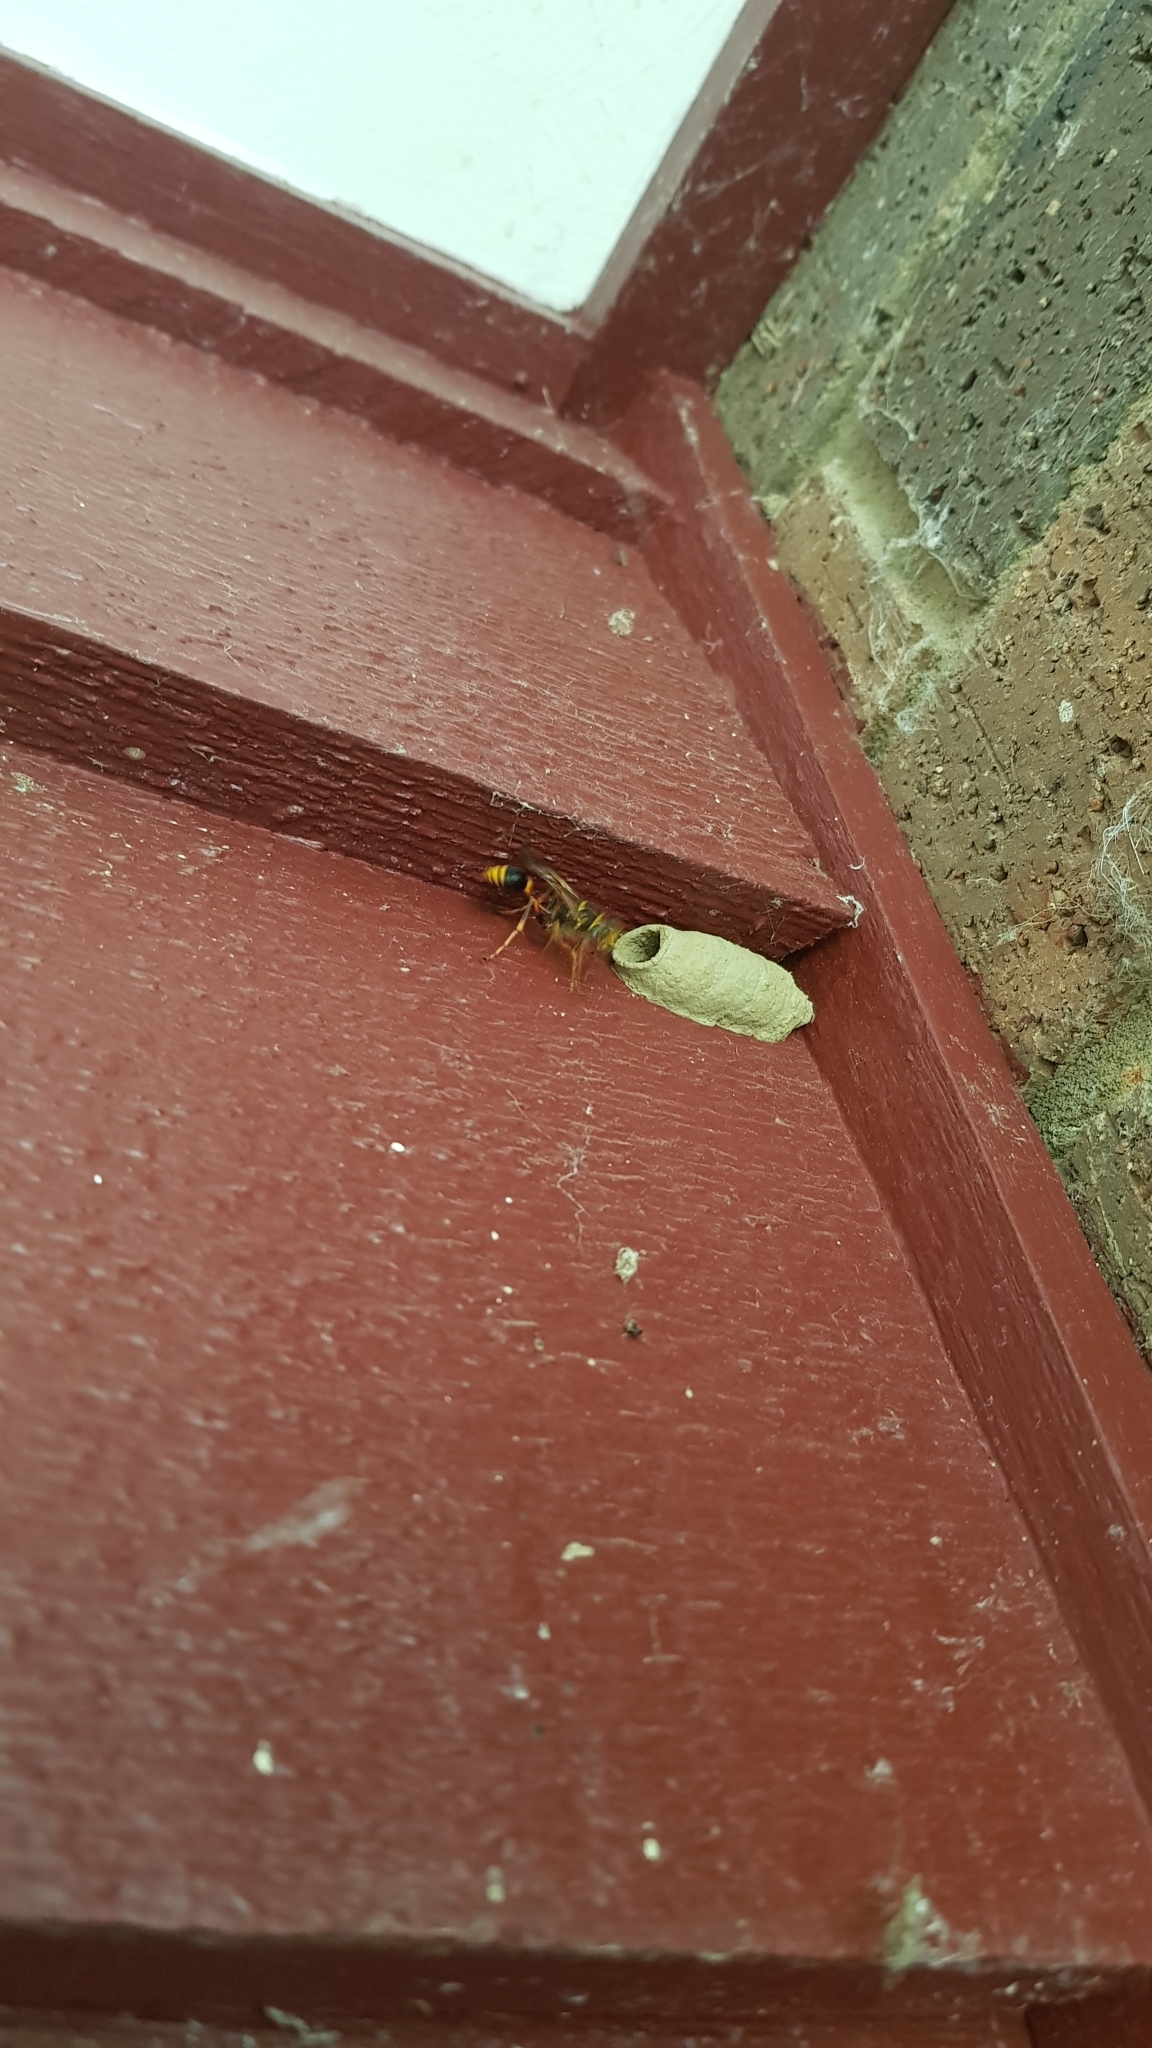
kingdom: Animalia
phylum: Arthropoda
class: Insecta
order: Hymenoptera
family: Sphecidae
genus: Sceliphron
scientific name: Sceliphron formosum
